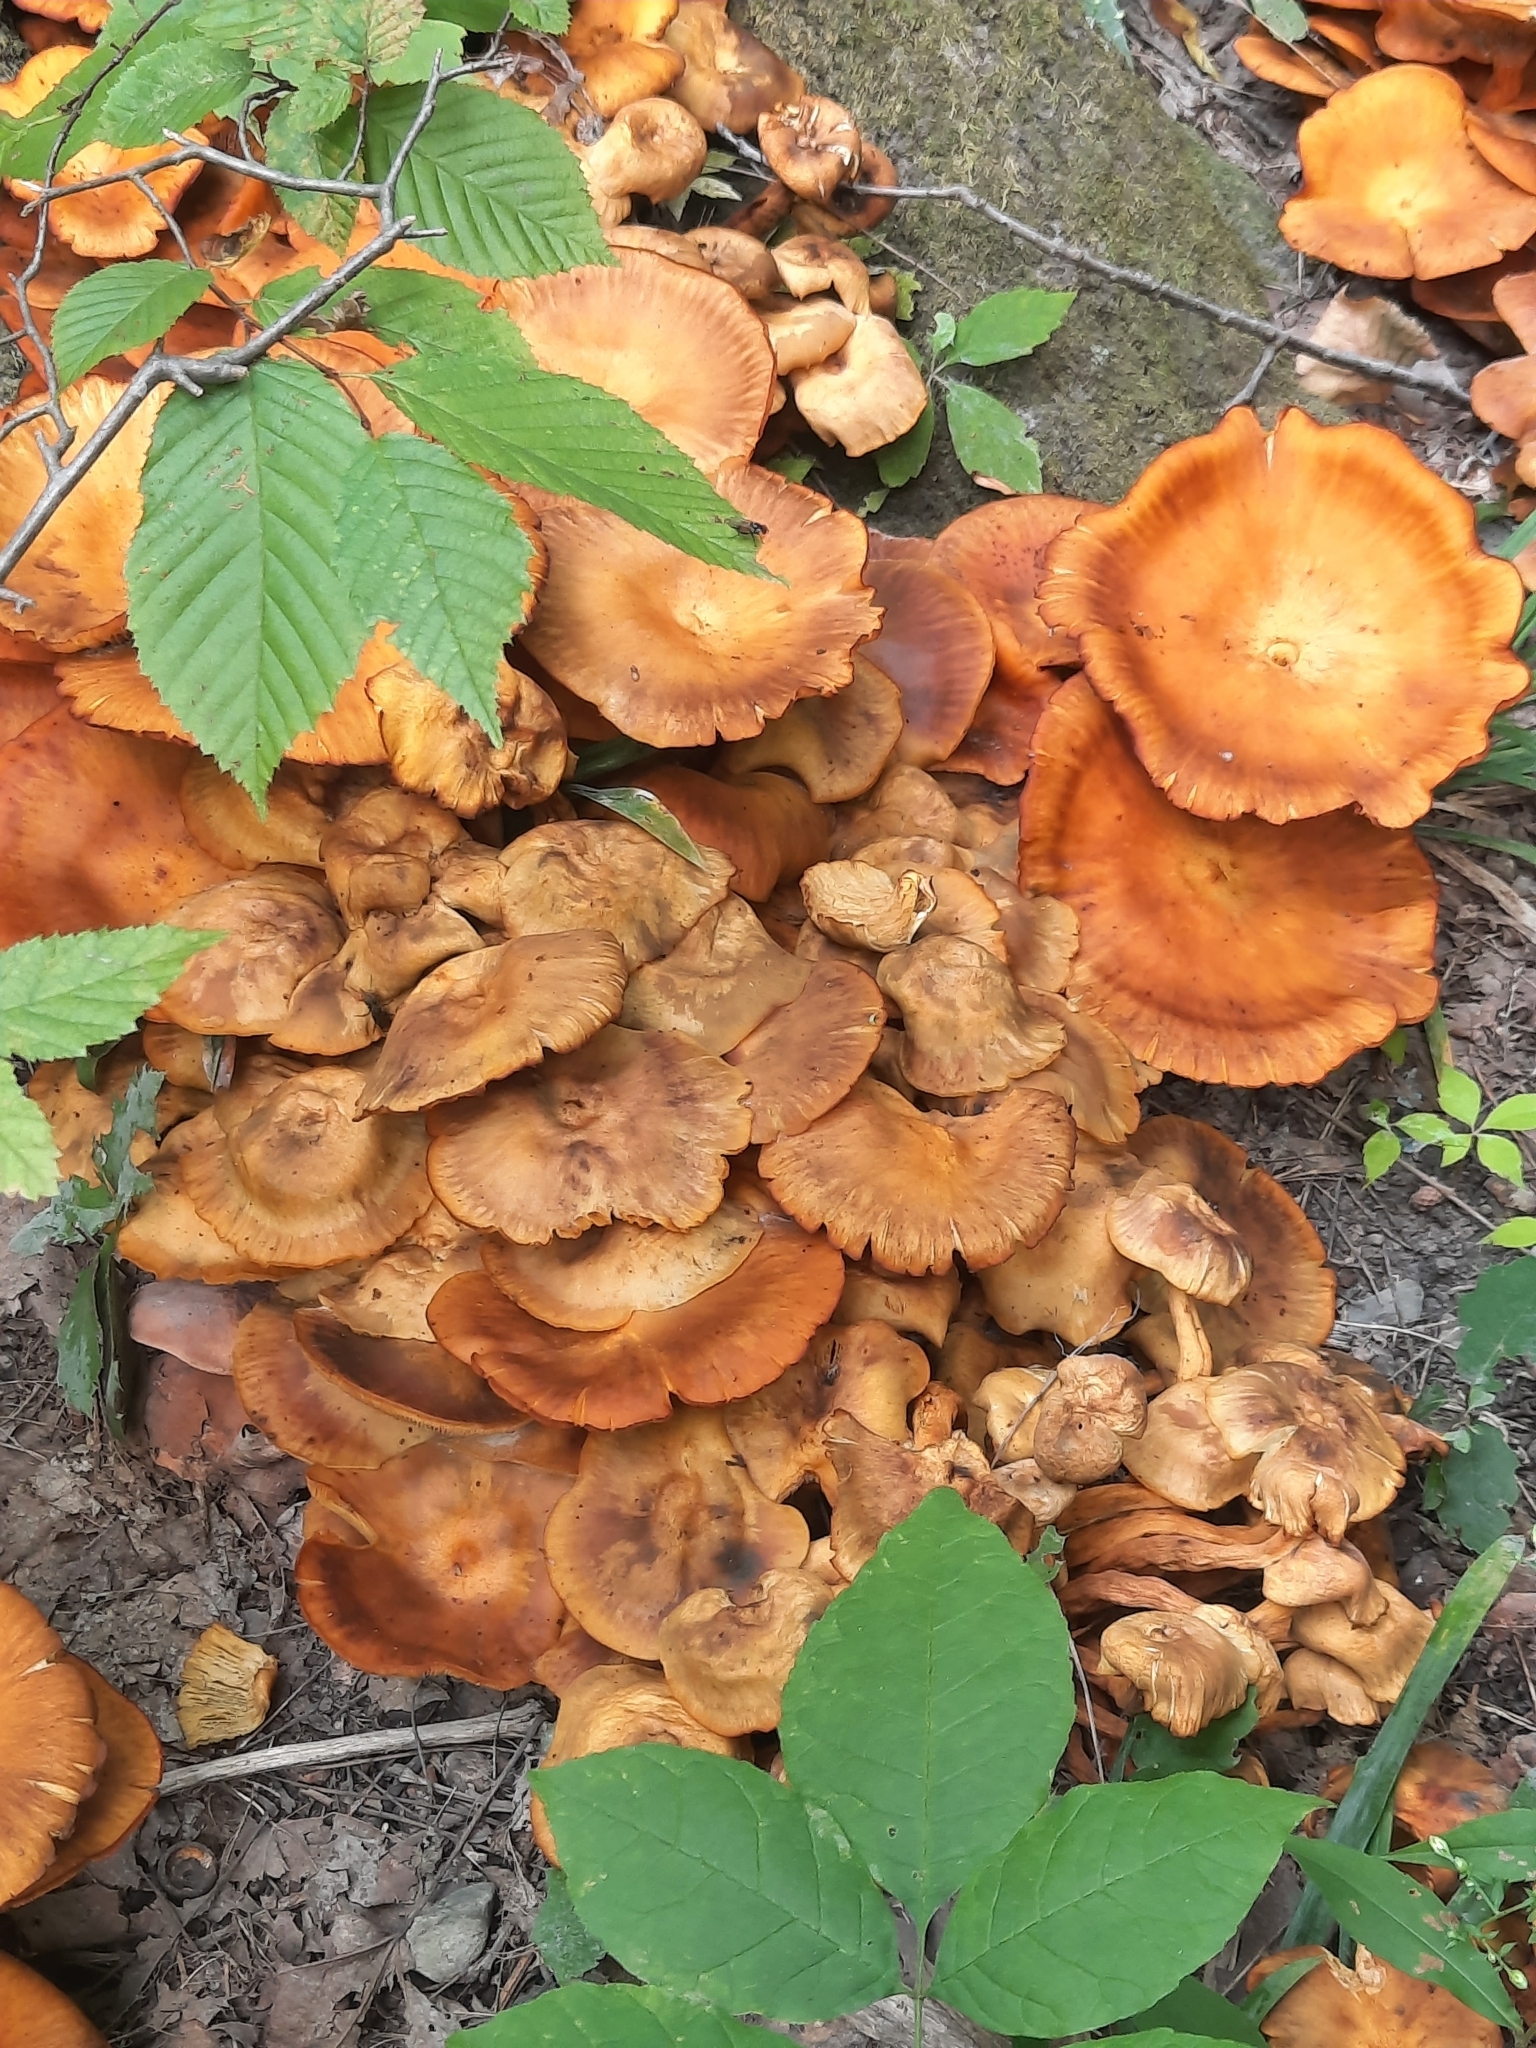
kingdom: Fungi
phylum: Basidiomycota
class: Agaricomycetes
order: Agaricales
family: Omphalotaceae
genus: Omphalotus
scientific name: Omphalotus illudens
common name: Jack o lantern
